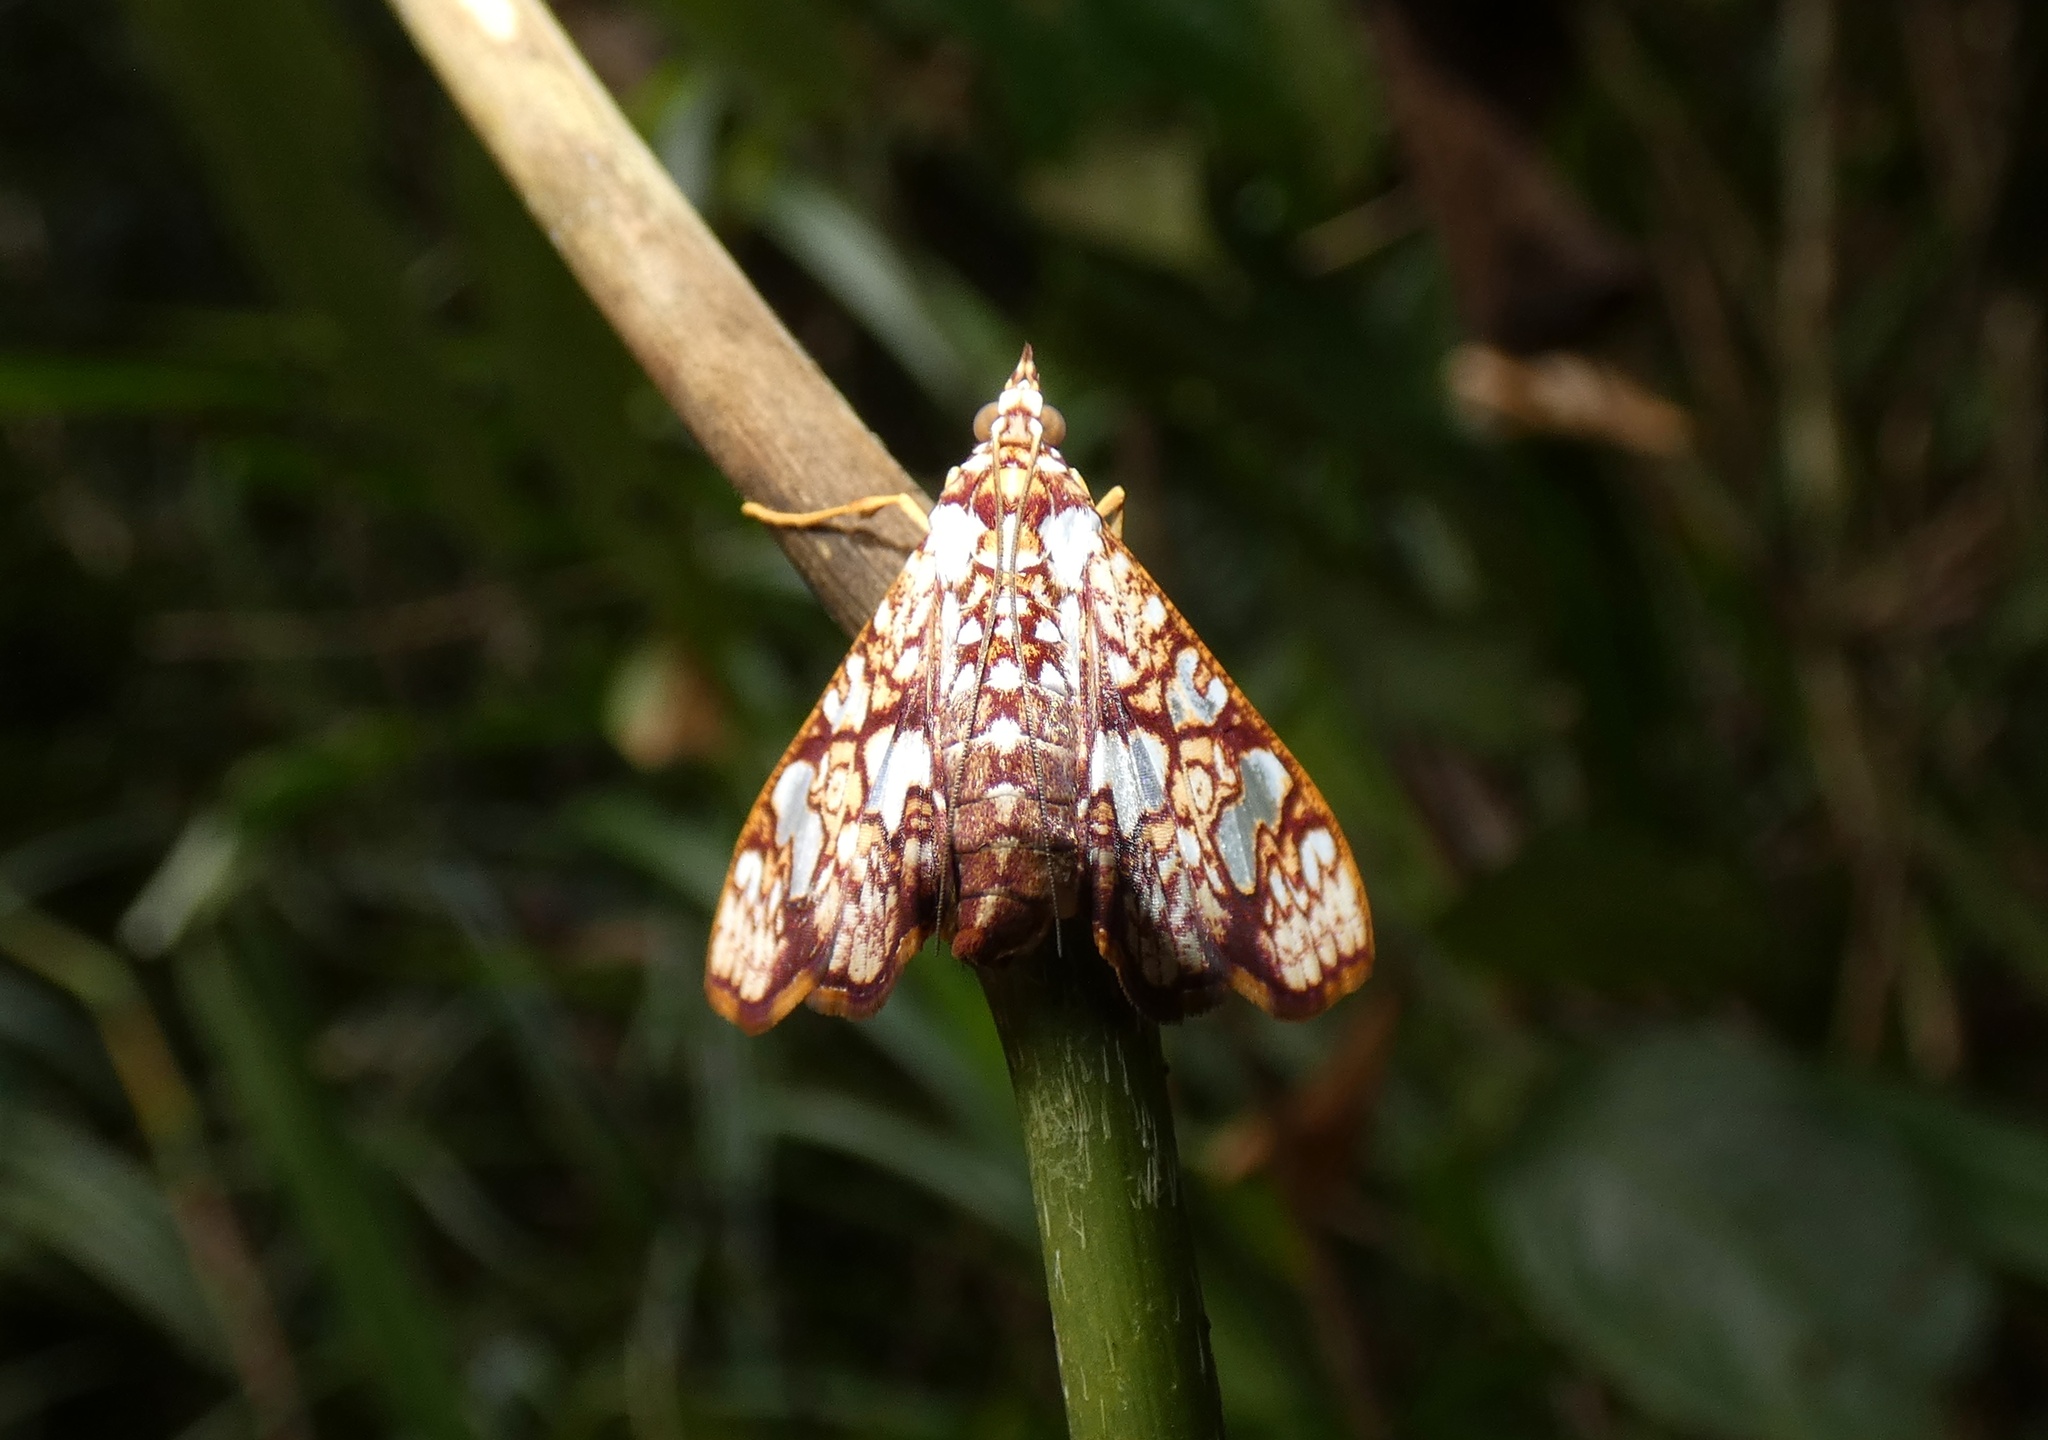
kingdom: Animalia
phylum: Arthropoda
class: Insecta
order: Lepidoptera
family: Crambidae
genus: Glyphodes
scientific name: Glyphodes canthusalis
